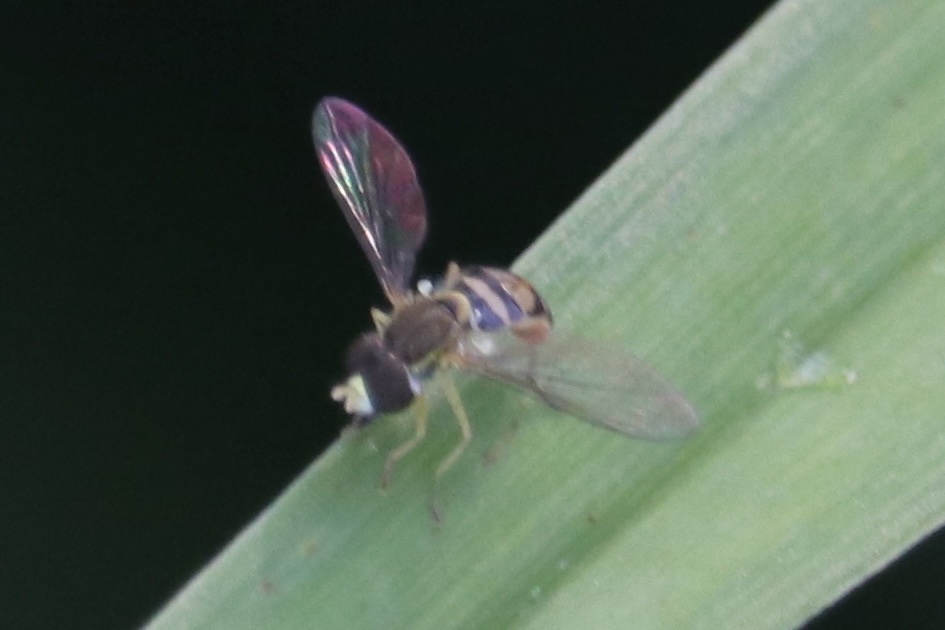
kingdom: Animalia
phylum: Arthropoda
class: Insecta
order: Diptera
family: Syrphidae
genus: Toxomerus
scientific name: Toxomerus marginatus
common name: Syrphid fly
